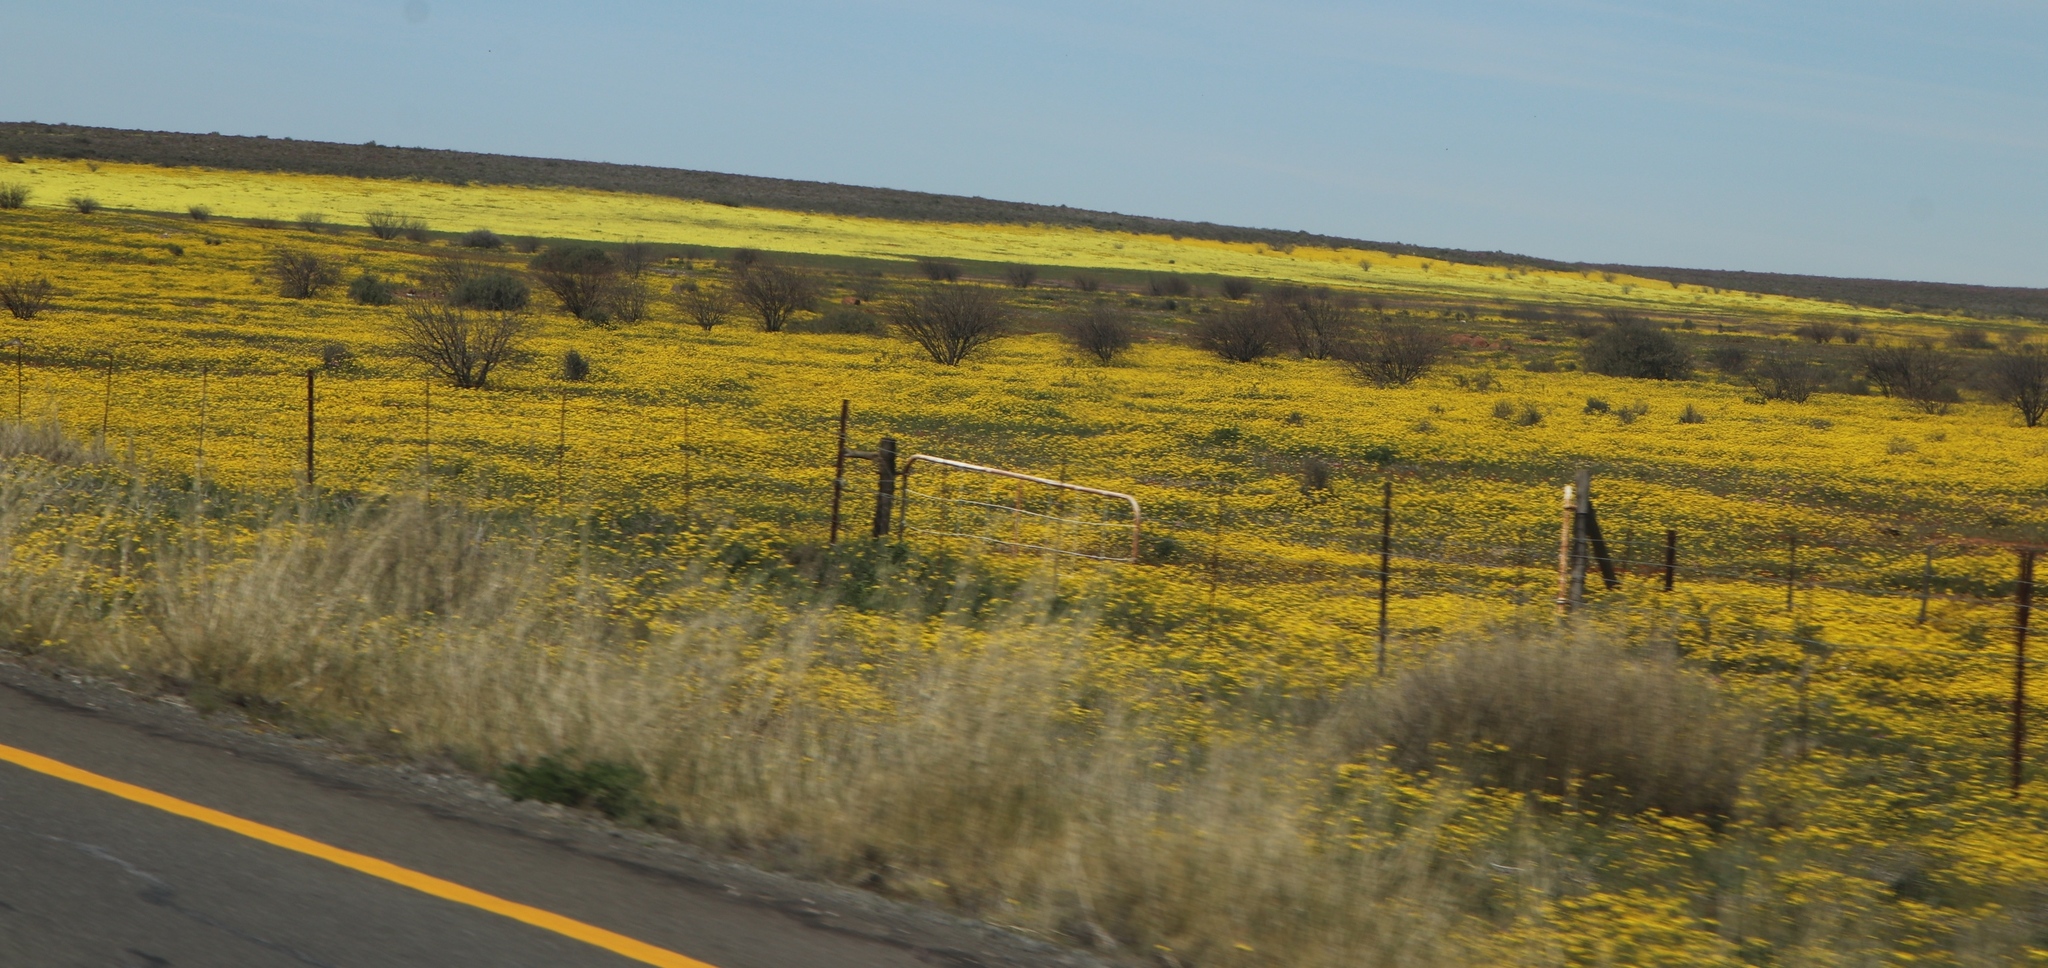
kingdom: Plantae
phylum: Tracheophyta
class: Magnoliopsida
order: Asterales
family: Asteraceae
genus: Senecio
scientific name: Senecio abruptus
